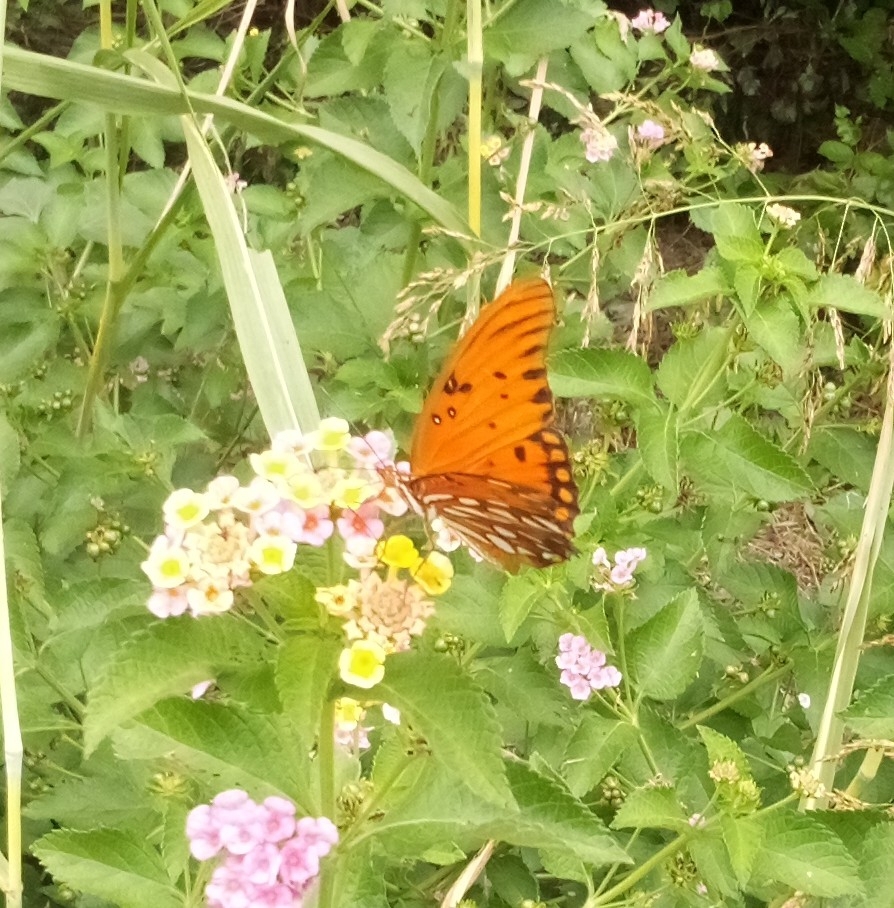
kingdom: Animalia
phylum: Arthropoda
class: Insecta
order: Lepidoptera
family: Nymphalidae
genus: Dione
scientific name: Dione vanillae
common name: Gulf fritillary
